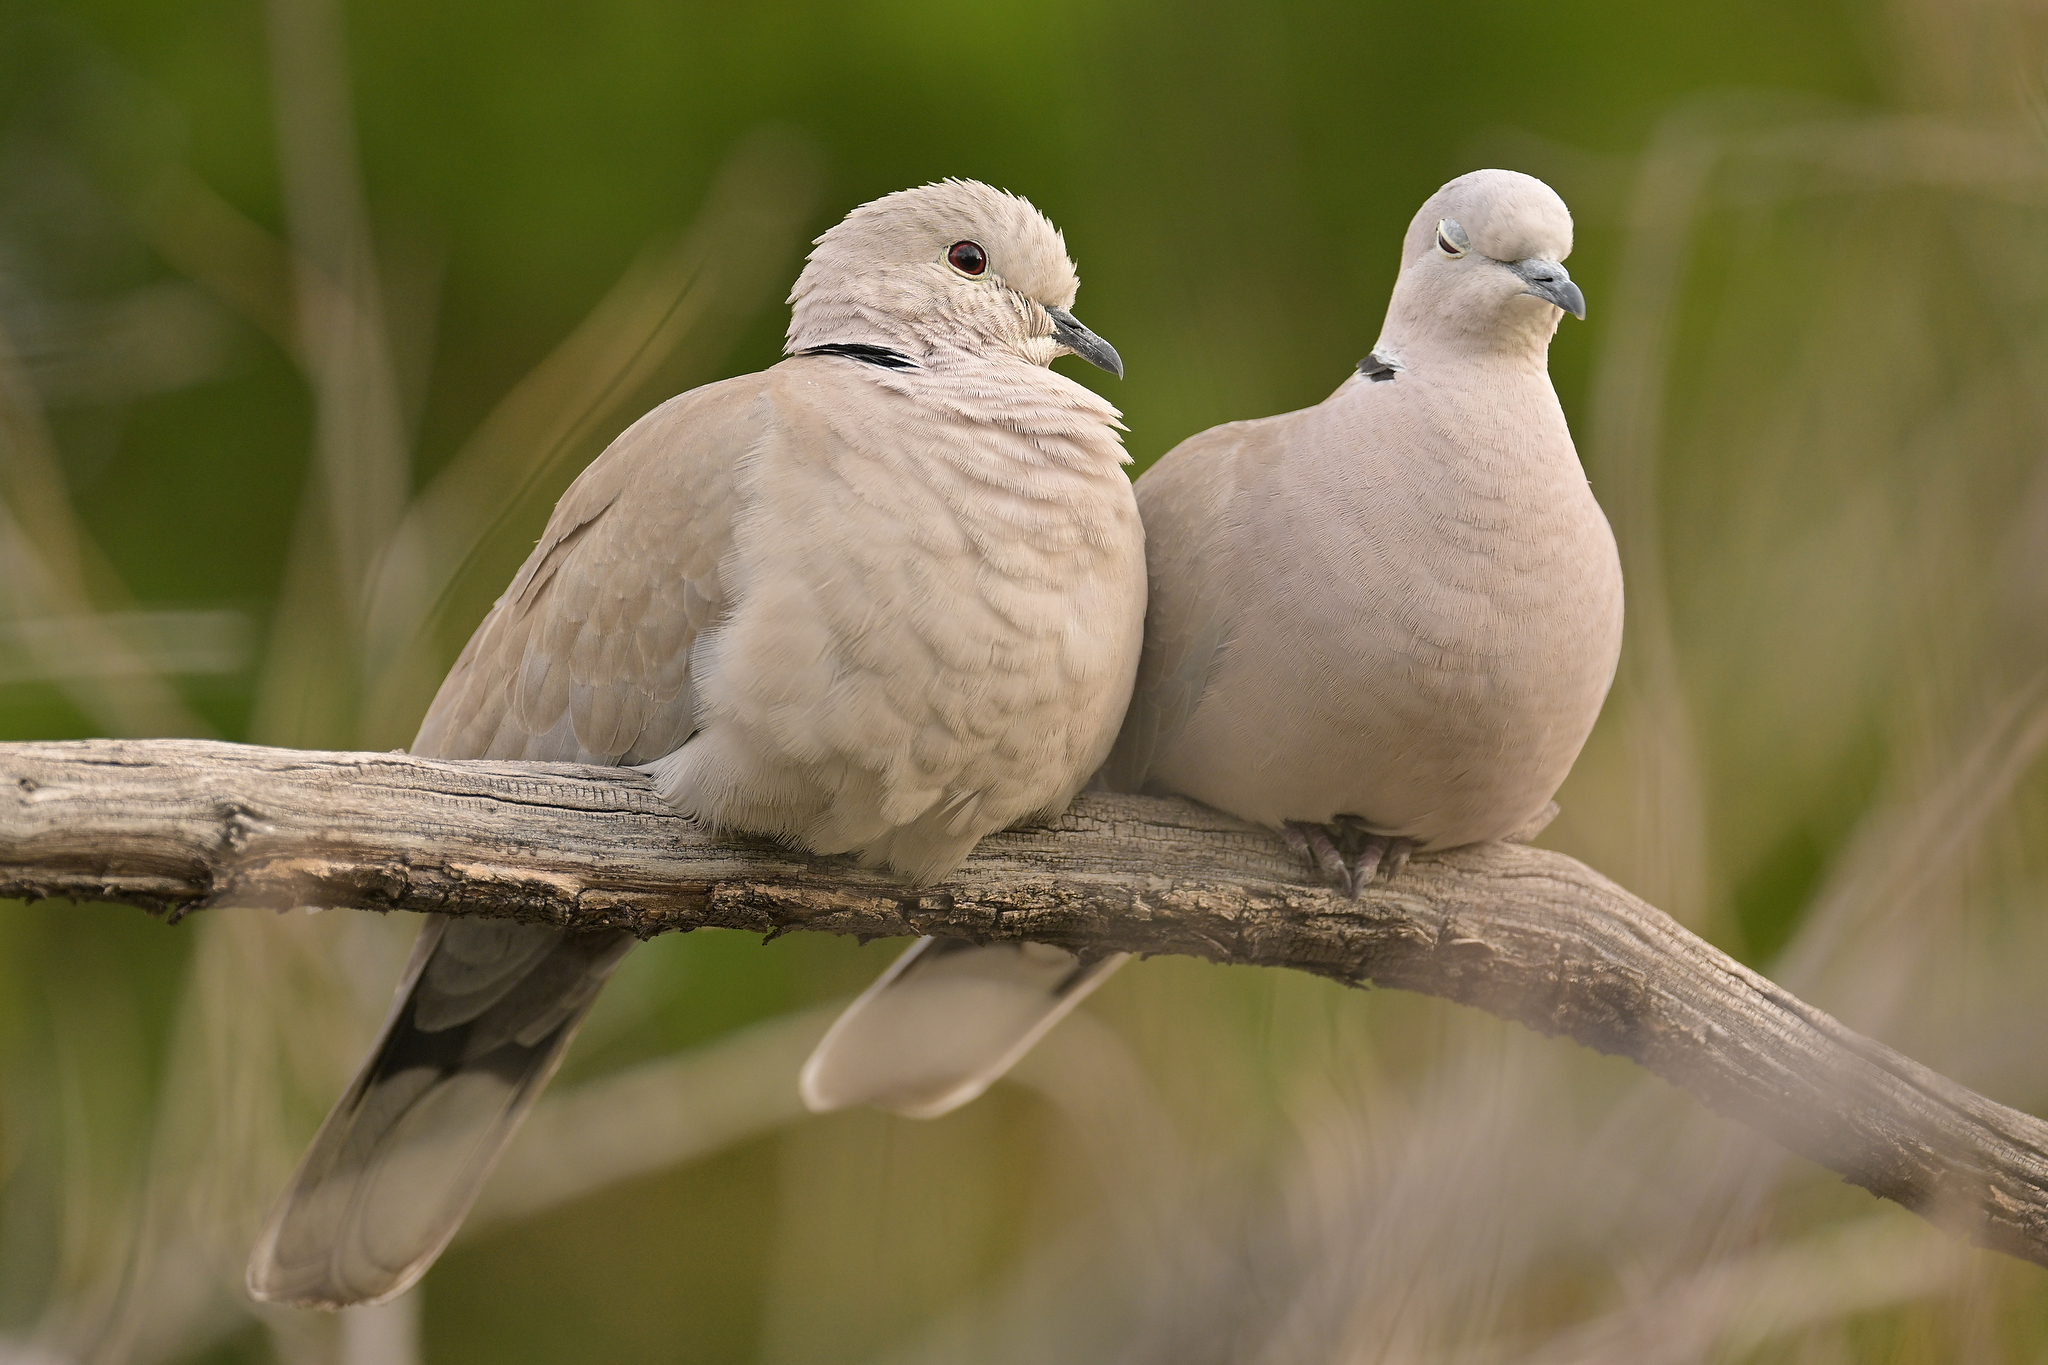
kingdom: Animalia
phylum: Chordata
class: Aves
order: Columbiformes
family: Columbidae
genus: Streptopelia
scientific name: Streptopelia decaocto
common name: Eurasian collared dove
